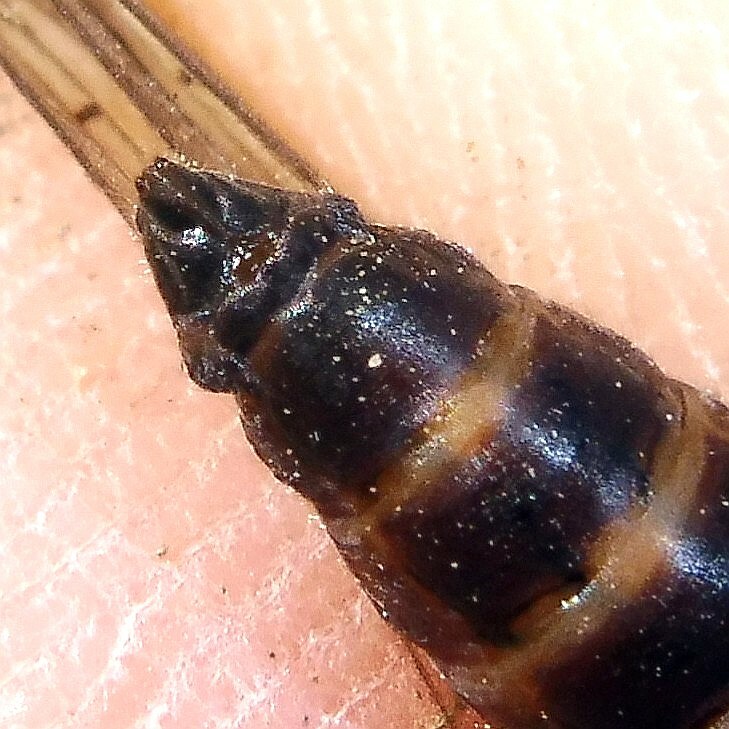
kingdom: Animalia
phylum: Arthropoda
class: Insecta
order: Megaloptera
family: Sialidae
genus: Sialis
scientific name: Sialis lutaria
